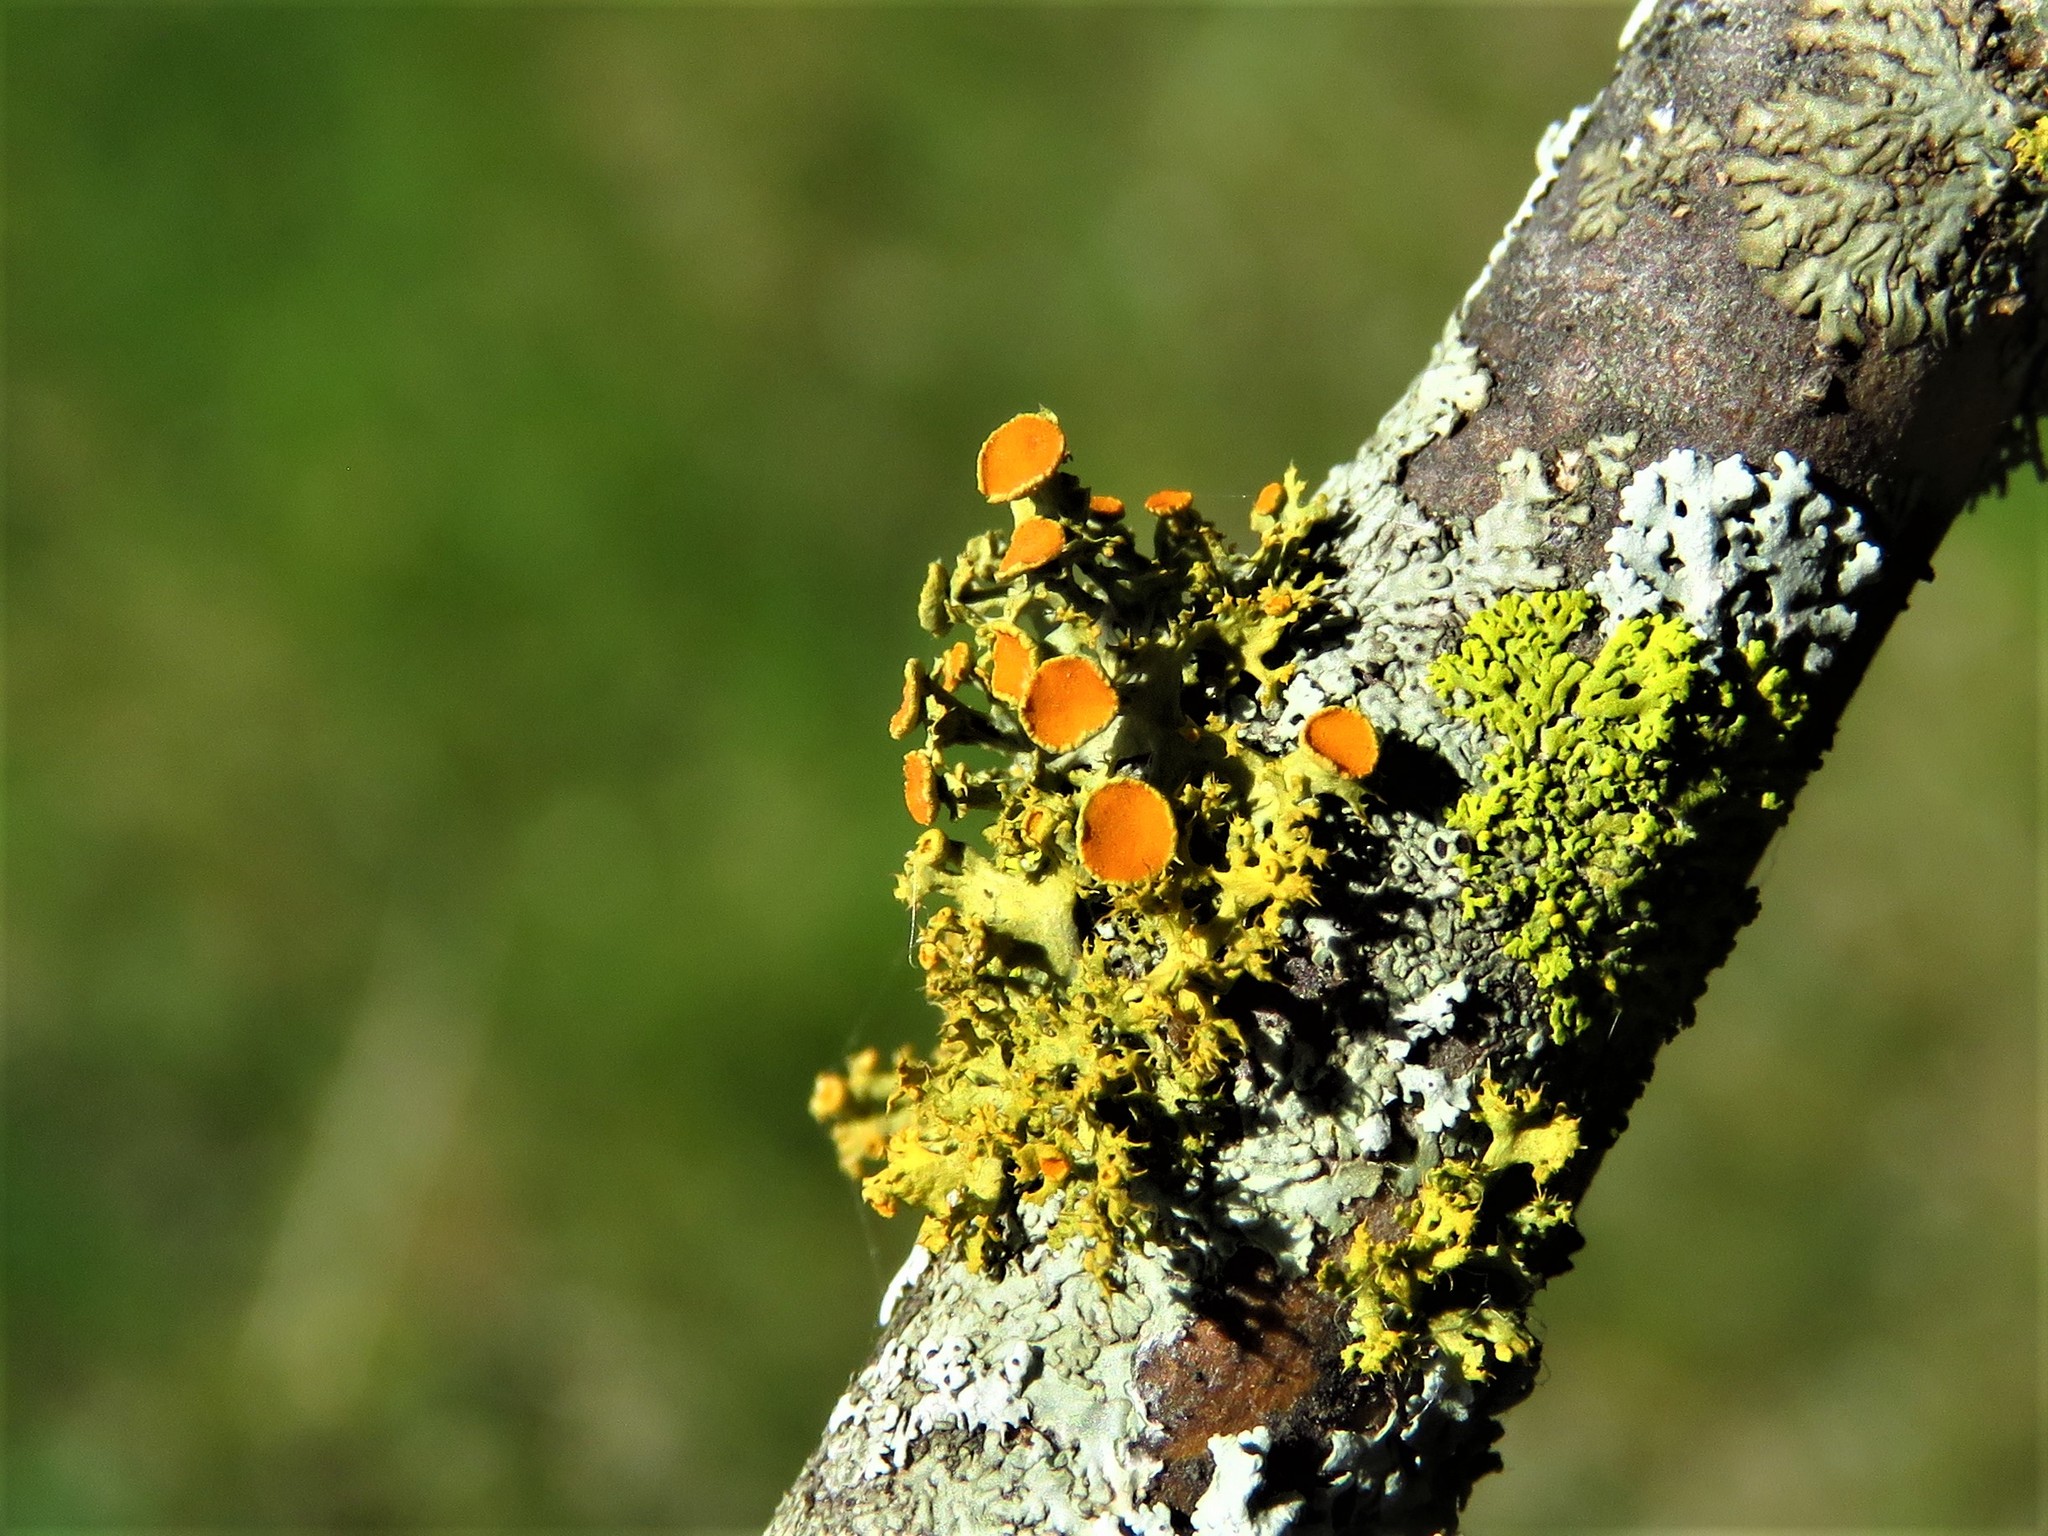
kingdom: Fungi
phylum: Ascomycota
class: Lecanoromycetes
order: Teloschistales
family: Teloschistaceae
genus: Niorma
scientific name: Niorma chrysophthalma
